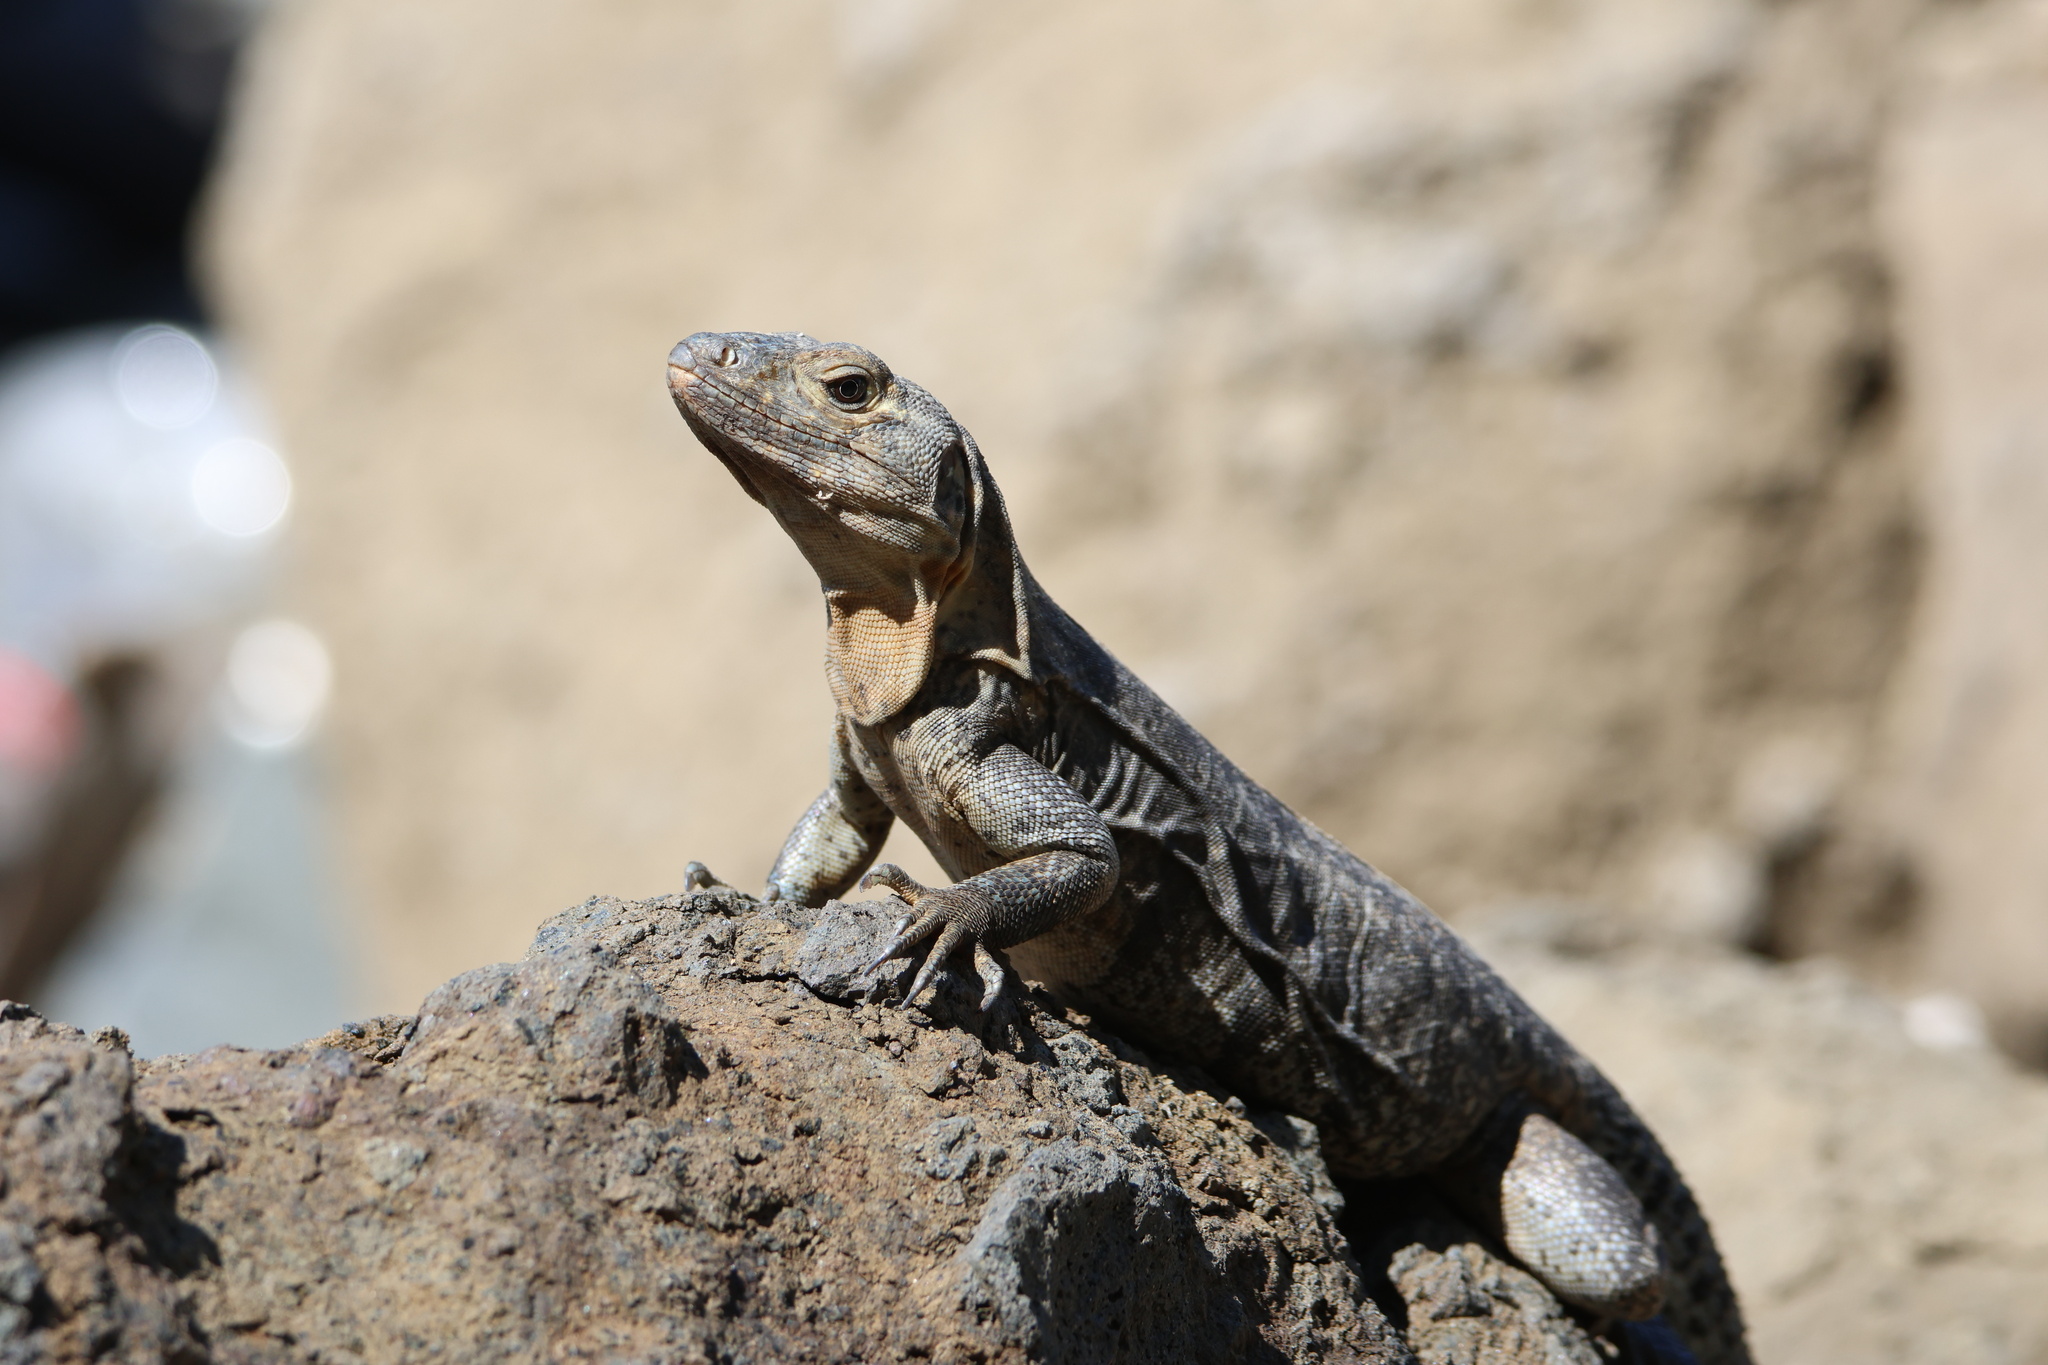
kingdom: Animalia
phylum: Chordata
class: Squamata
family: Iguanidae
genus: Ctenosaura
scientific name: Ctenosaura similis
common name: Black spiny-tailed iguana
